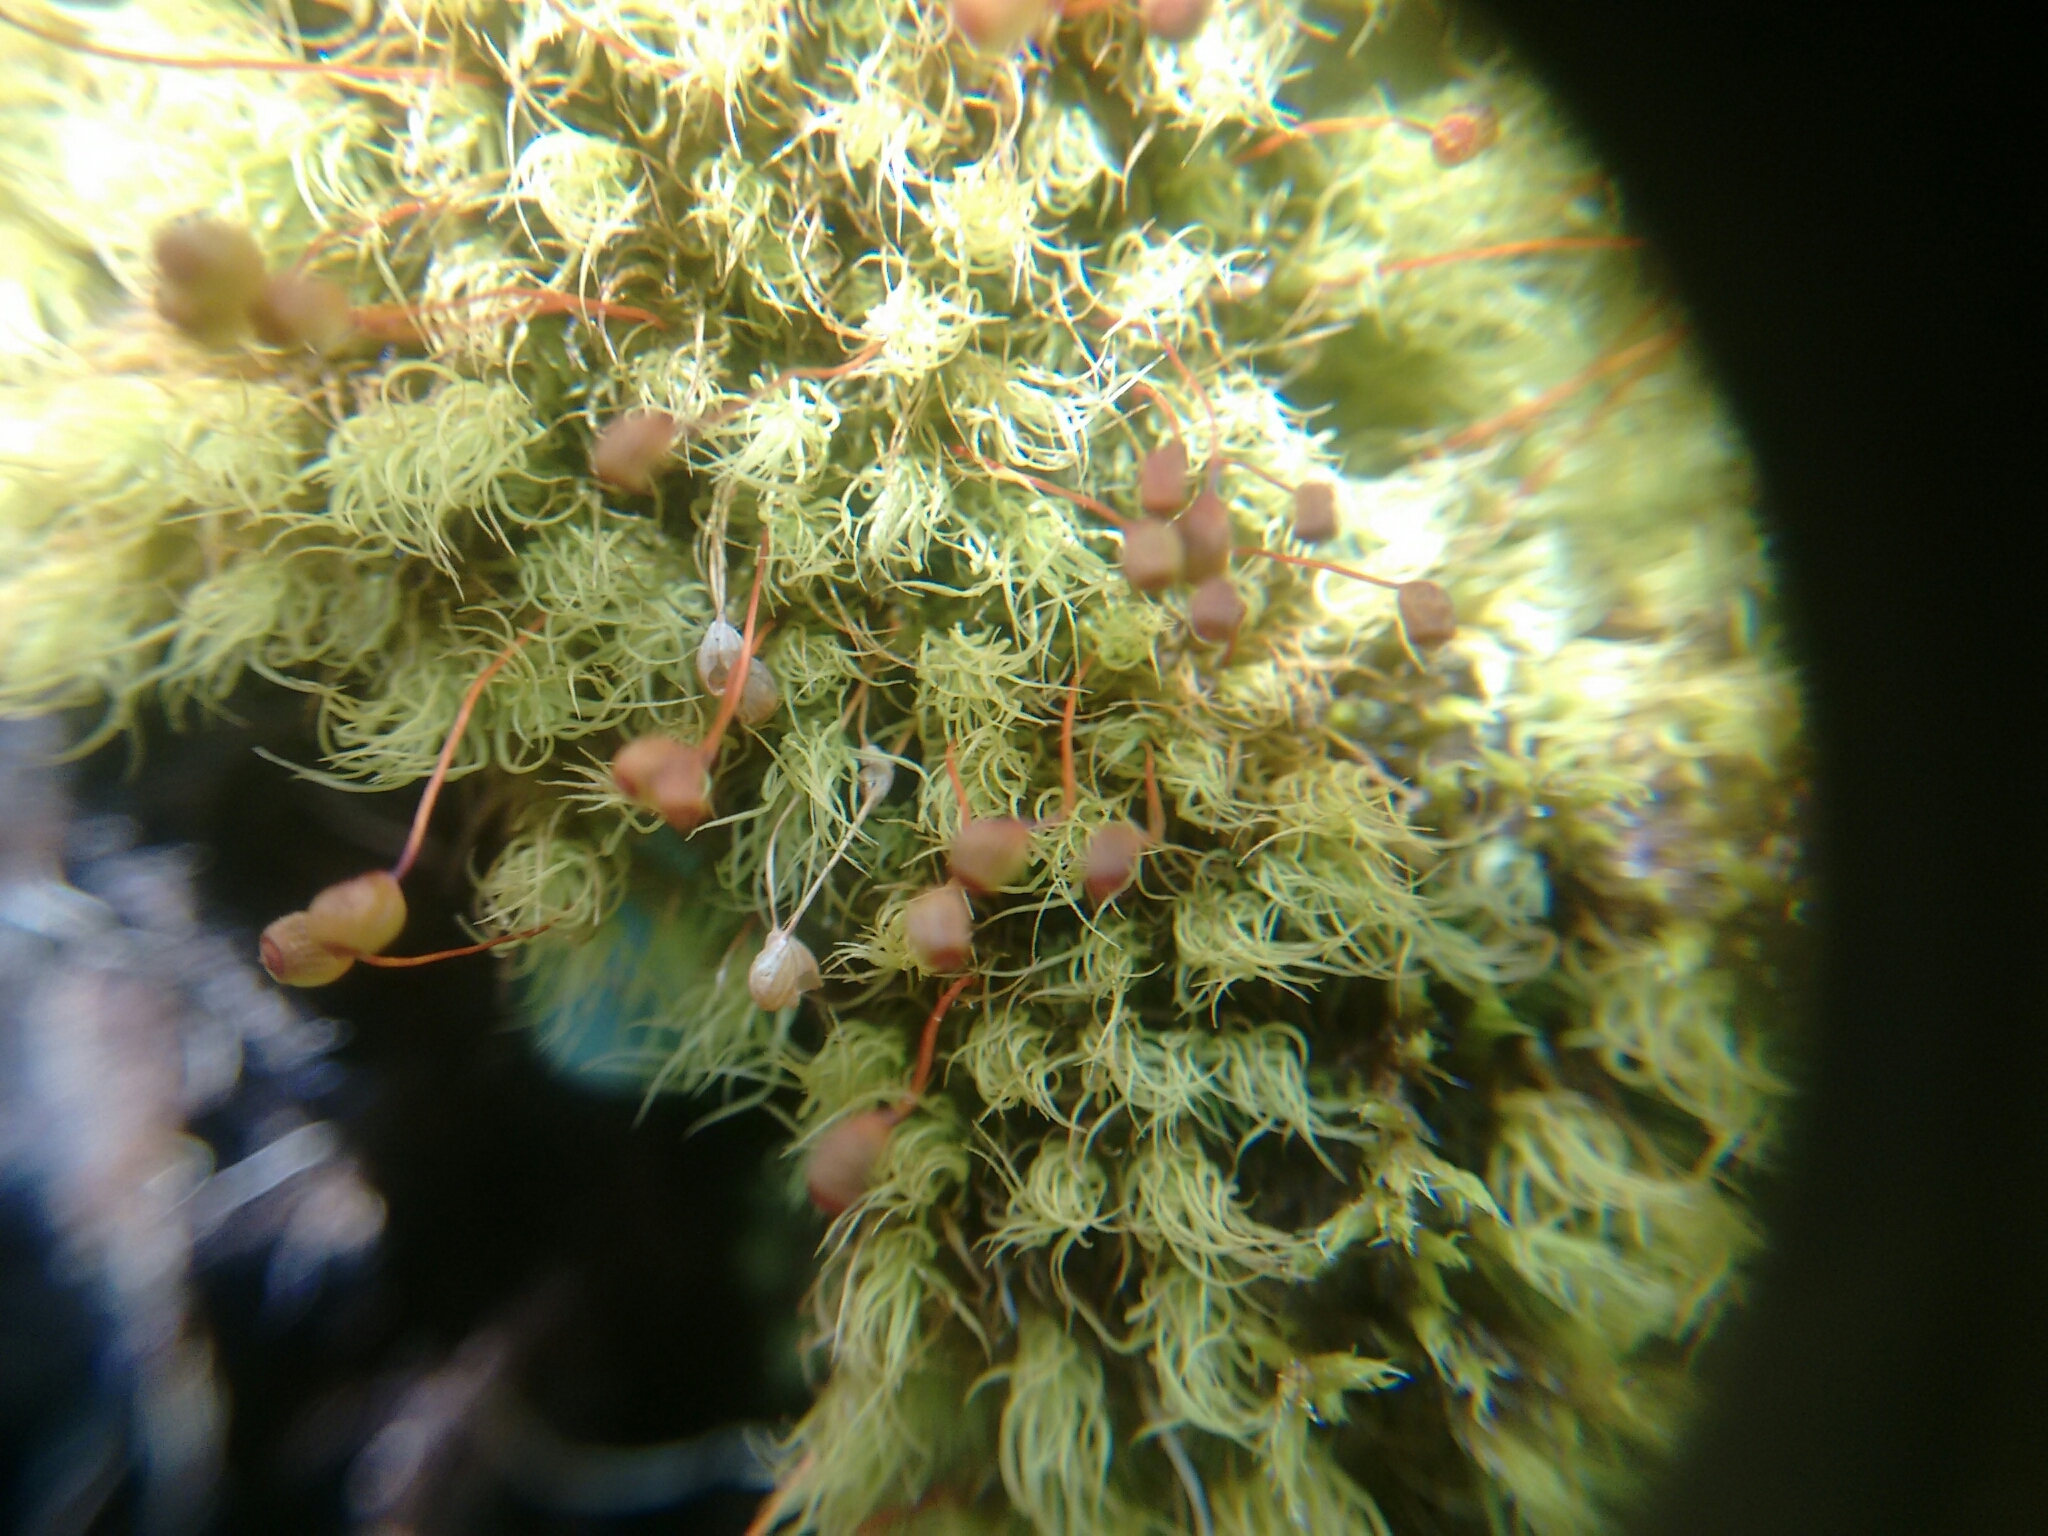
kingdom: Plantae
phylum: Bryophyta
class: Bryopsida
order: Bartramiales
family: Bartramiaceae
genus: Bartramia
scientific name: Bartramia ithyphylla
